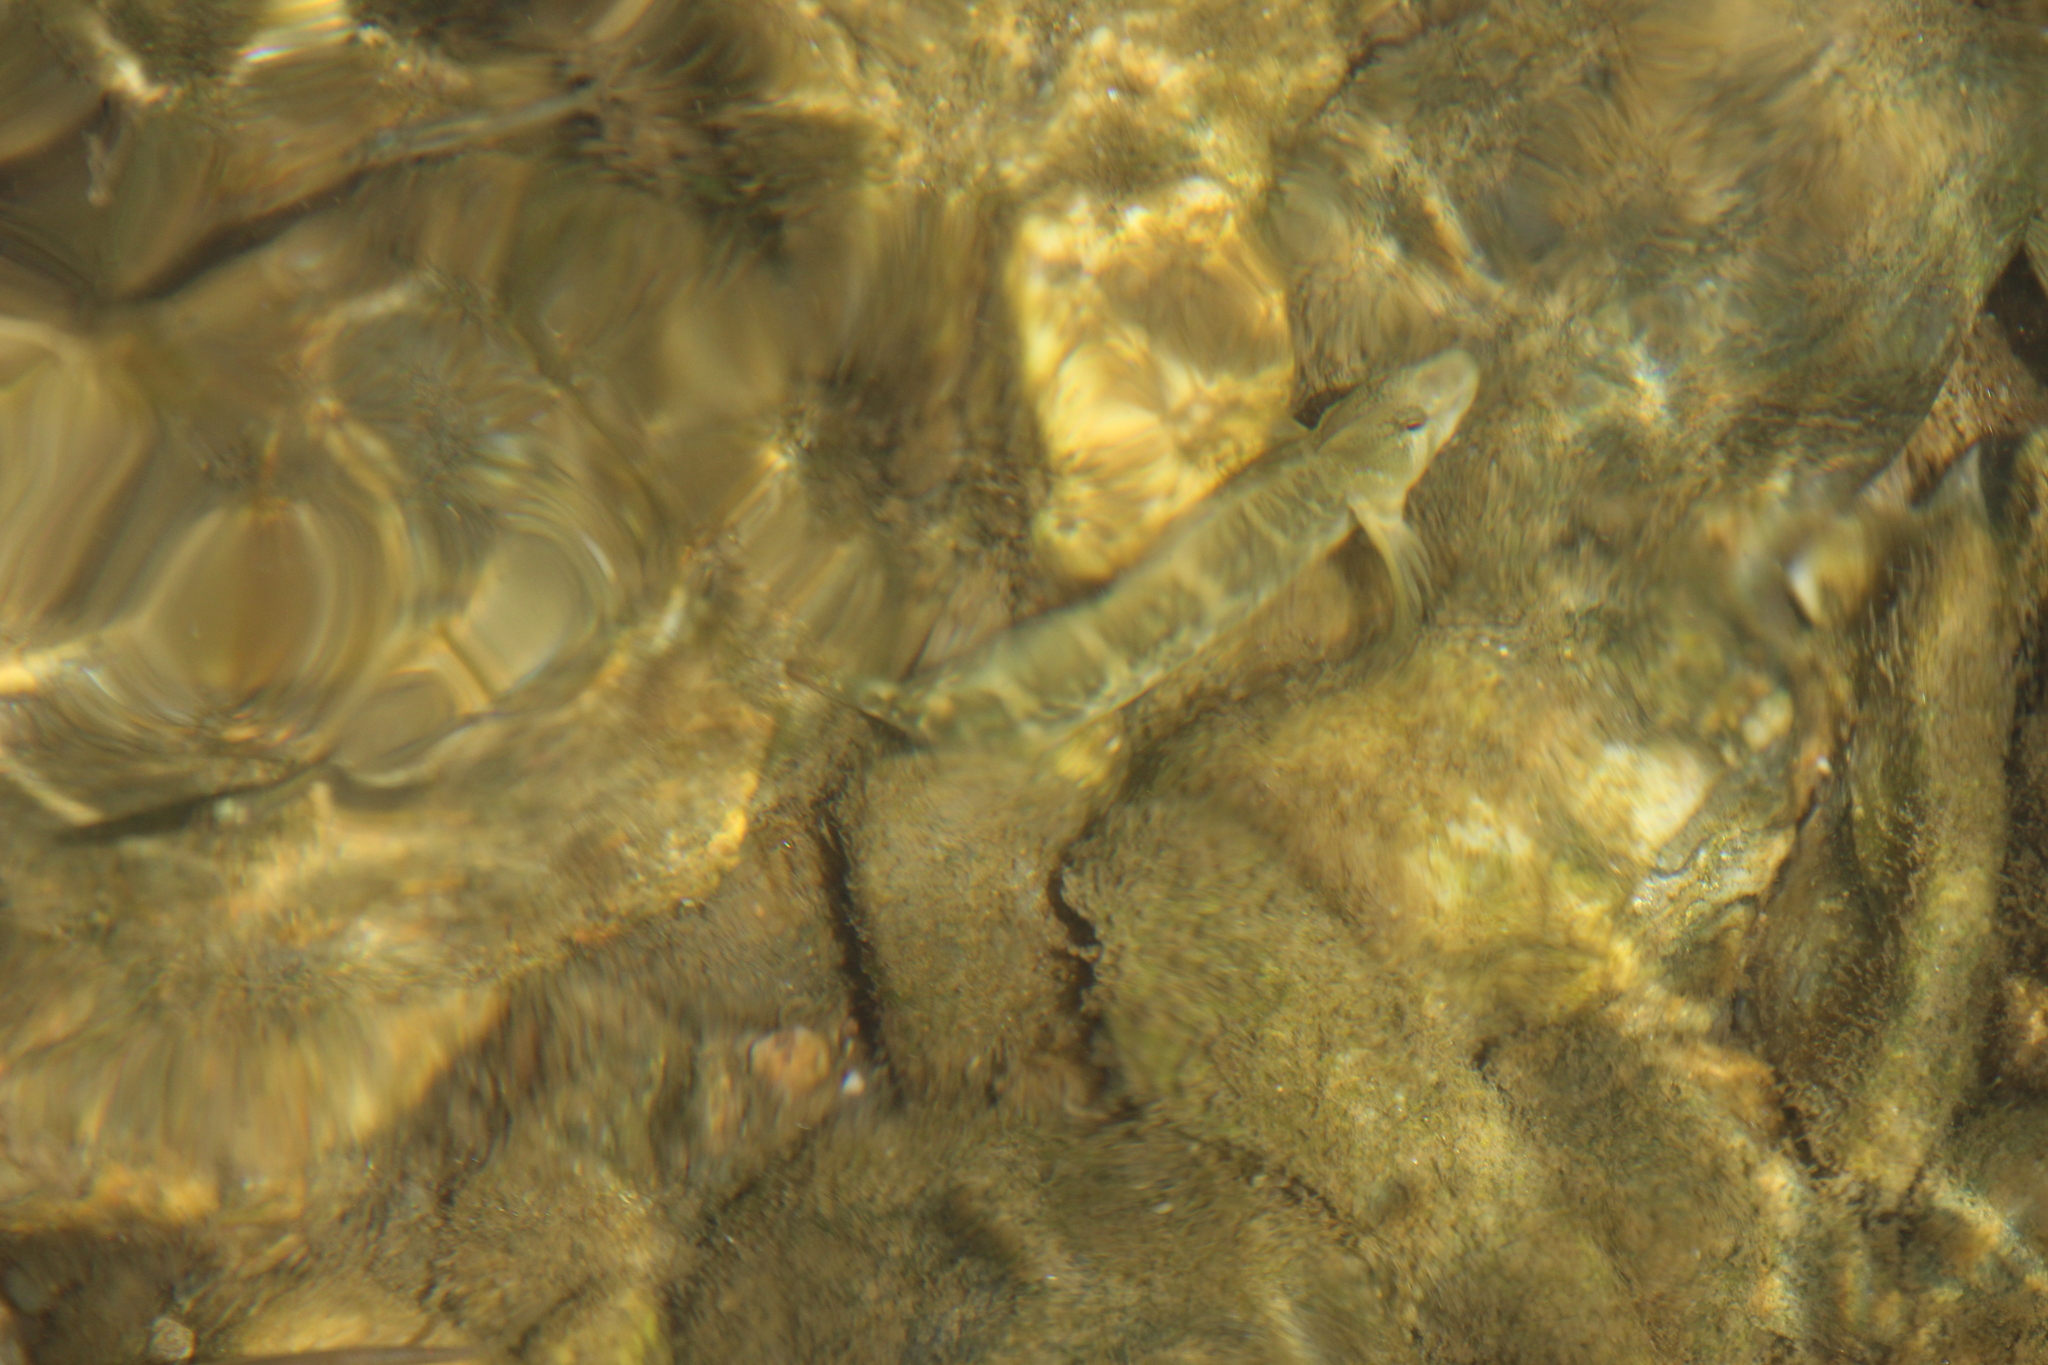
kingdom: Animalia
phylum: Chordata
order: Perciformes
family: Blenniidae
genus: Salaria
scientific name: Salaria fluviatilis
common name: Freshwater blenny
